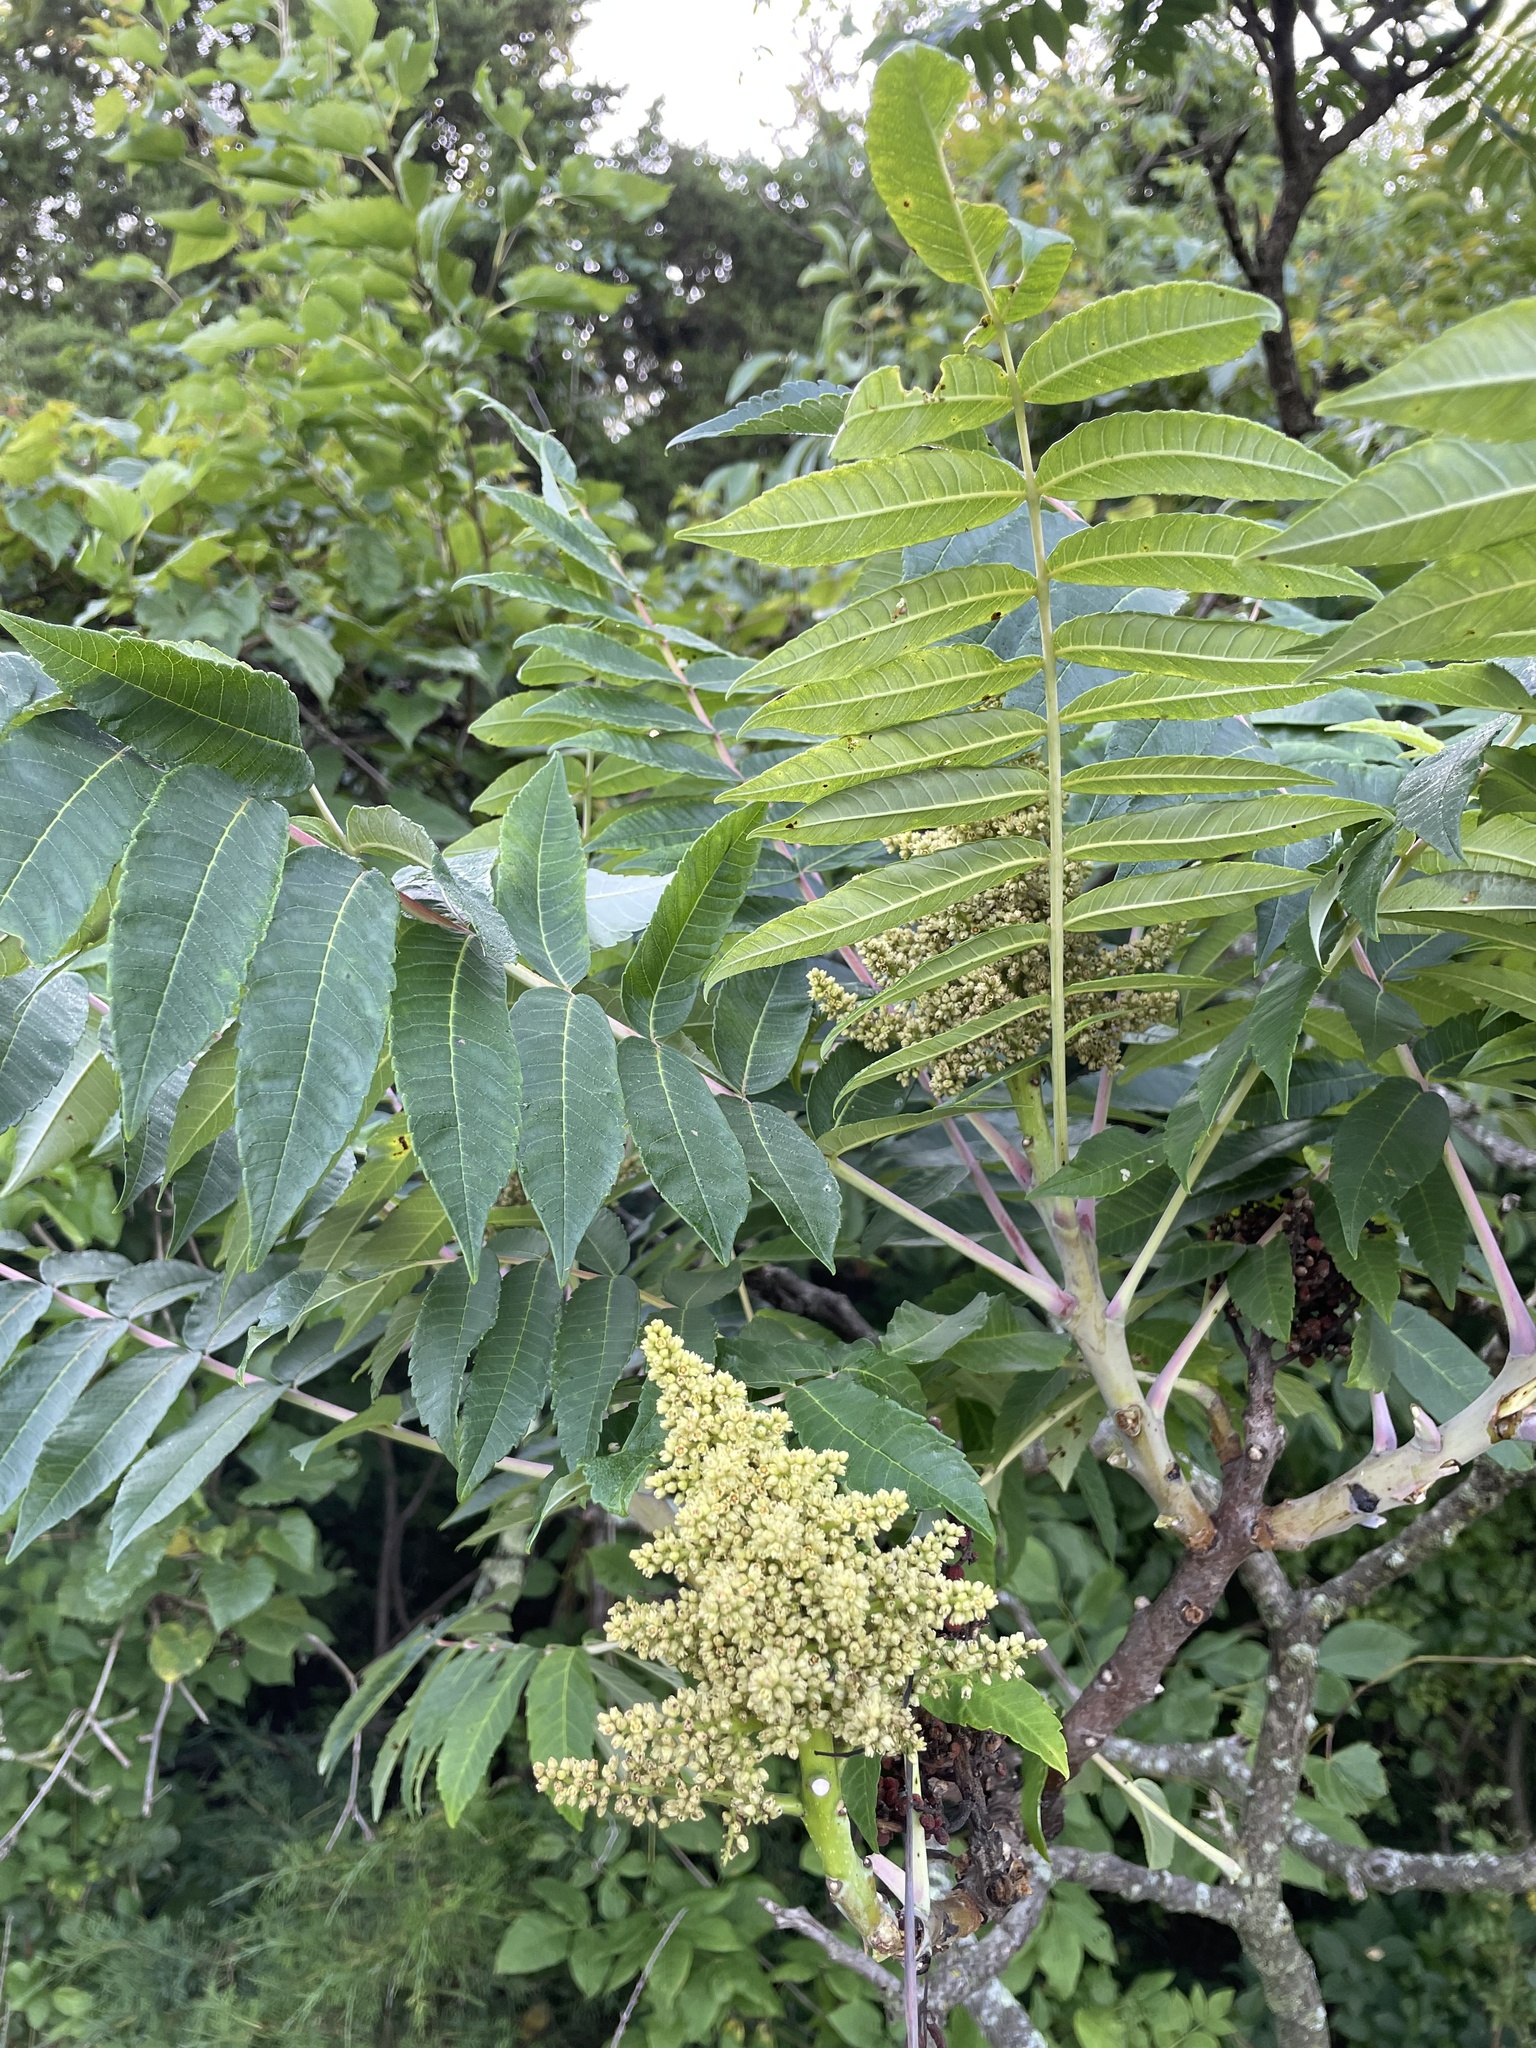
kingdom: Plantae
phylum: Tracheophyta
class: Magnoliopsida
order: Sapindales
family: Anacardiaceae
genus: Rhus
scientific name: Rhus glabra
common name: Scarlet sumac
